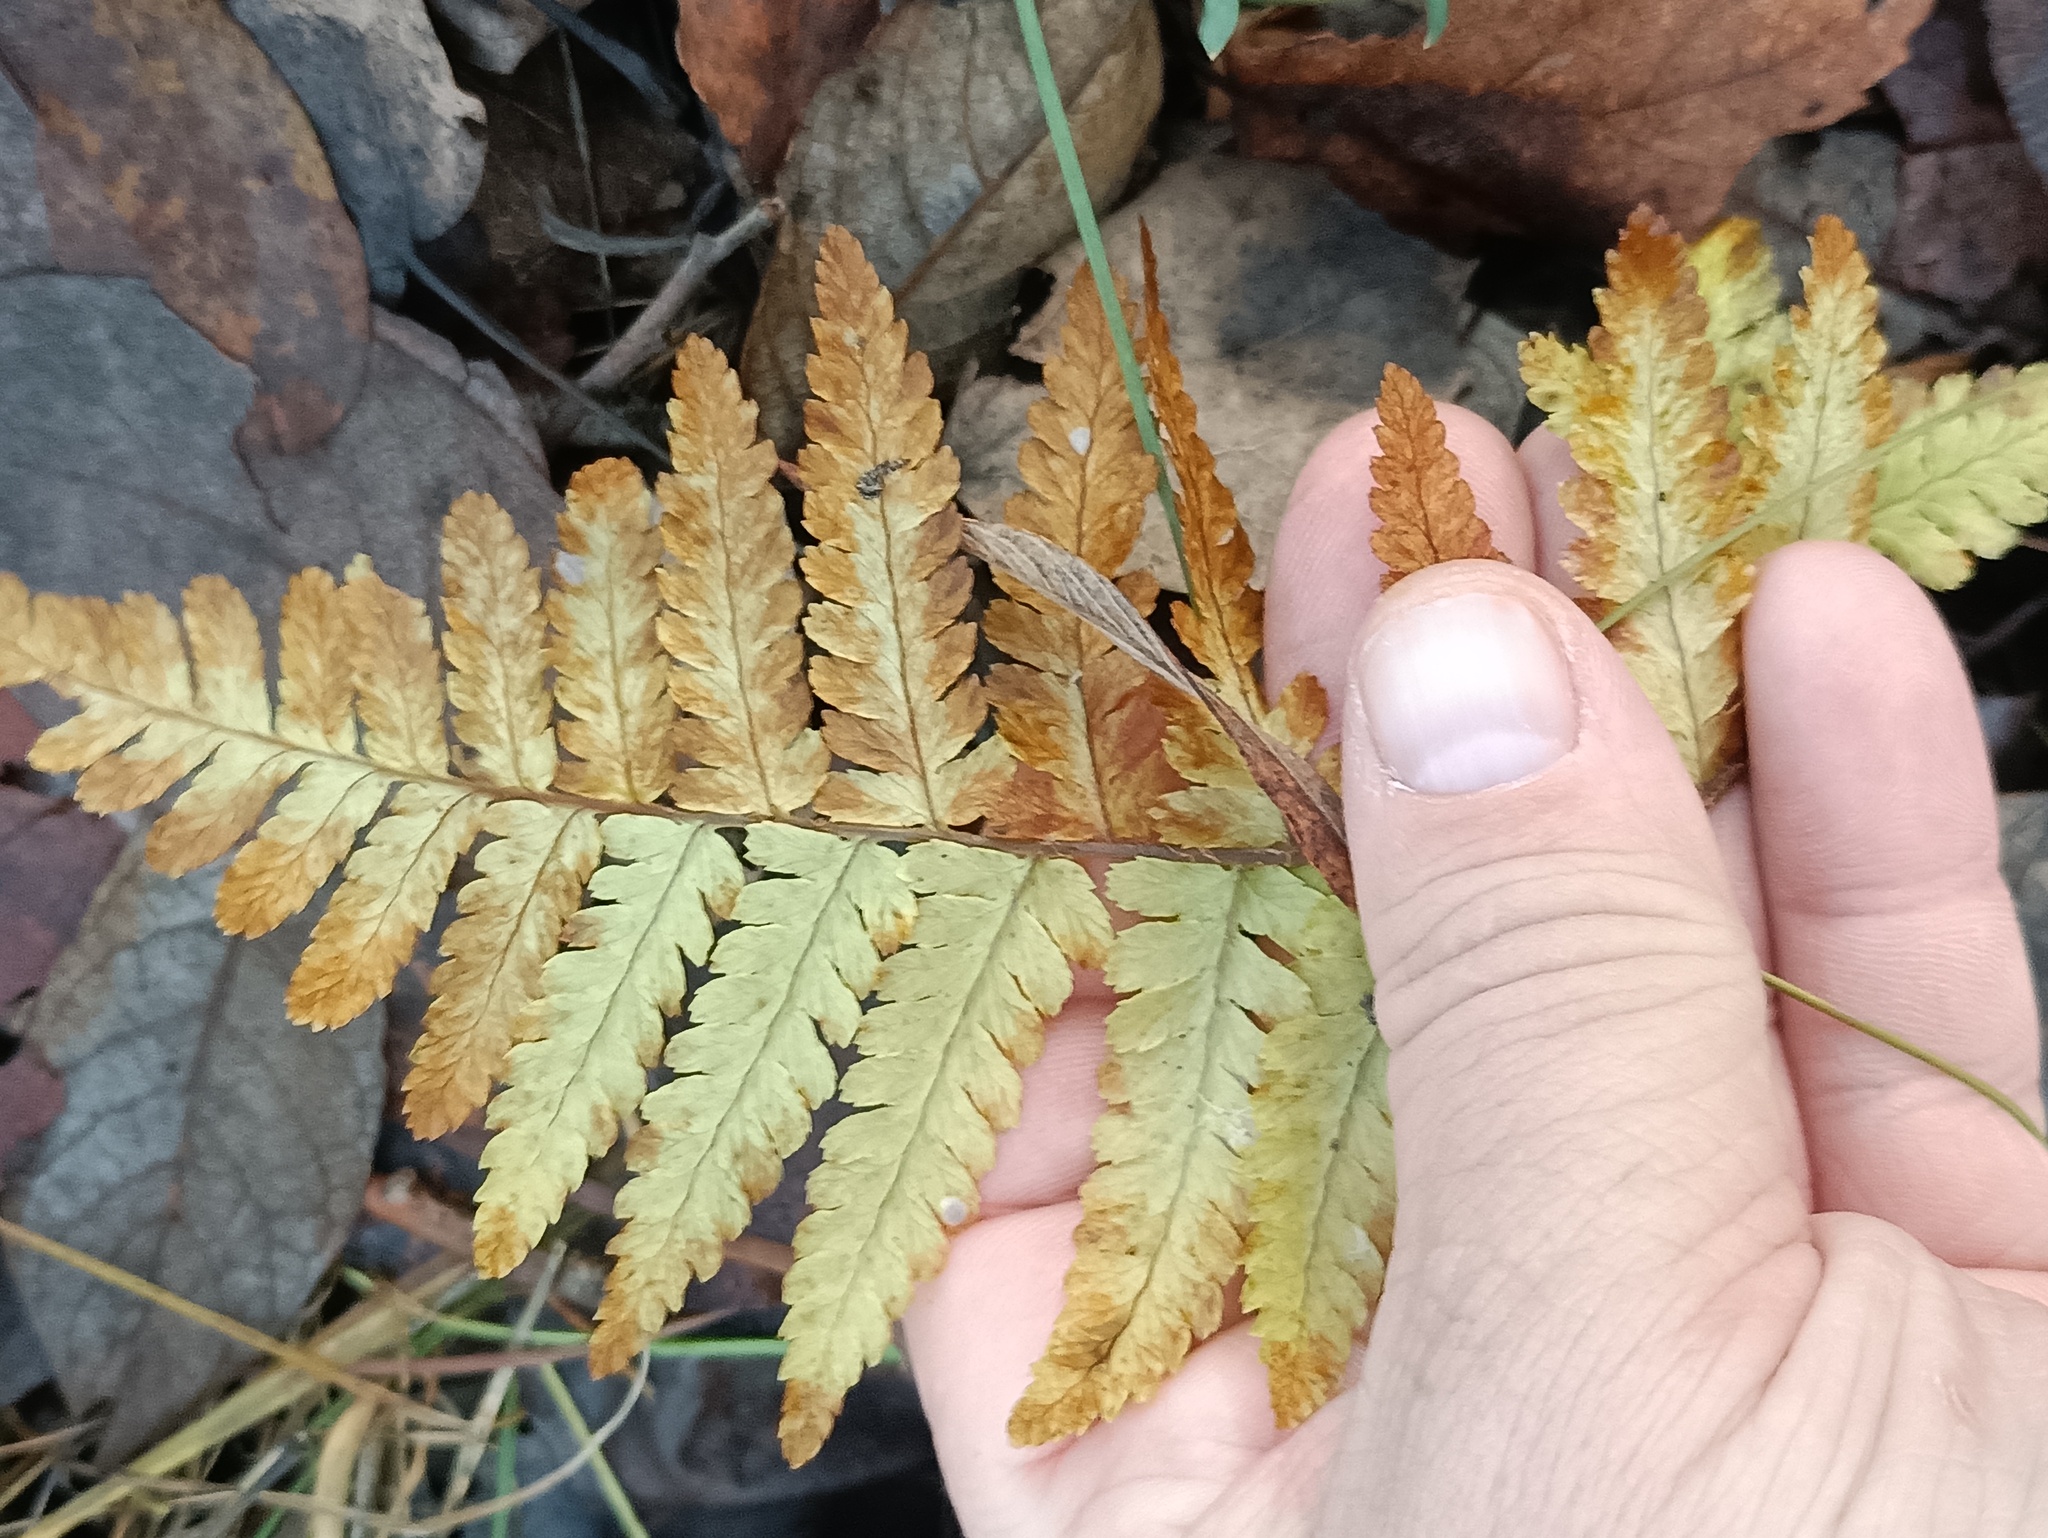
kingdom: Plantae
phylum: Tracheophyta
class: Polypodiopsida
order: Polypodiales
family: Dryopteridaceae
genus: Dryopteris
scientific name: Dryopteris filix-mas
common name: Male fern
